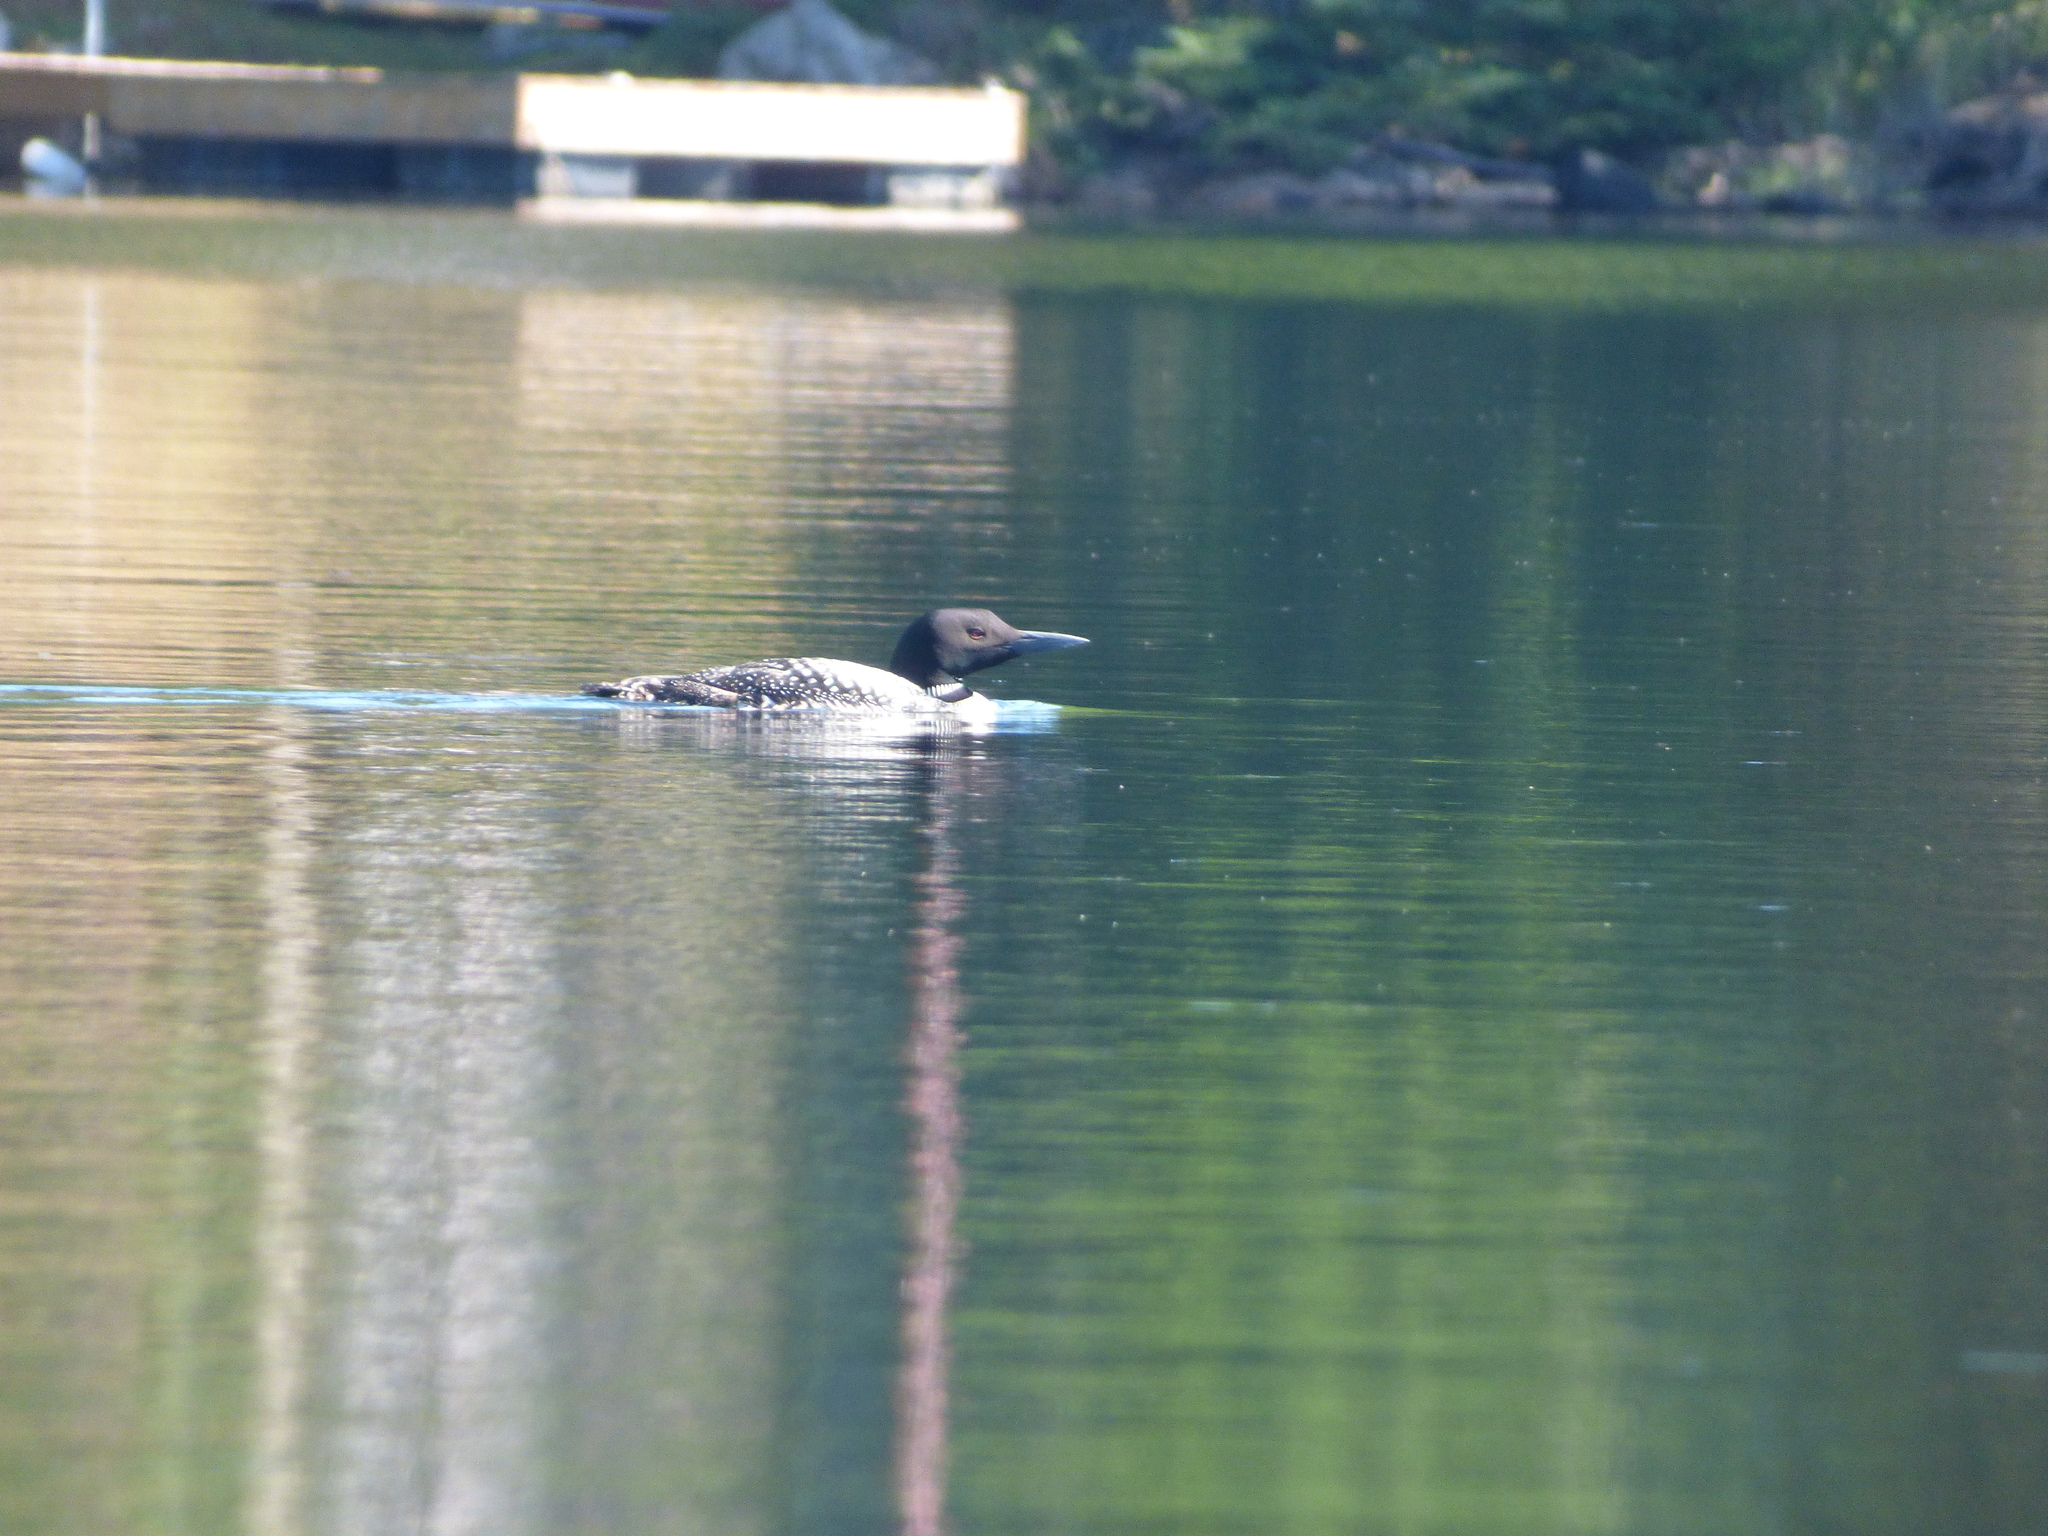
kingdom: Animalia
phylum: Chordata
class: Aves
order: Gaviiformes
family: Gaviidae
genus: Gavia
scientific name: Gavia immer
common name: Common loon
